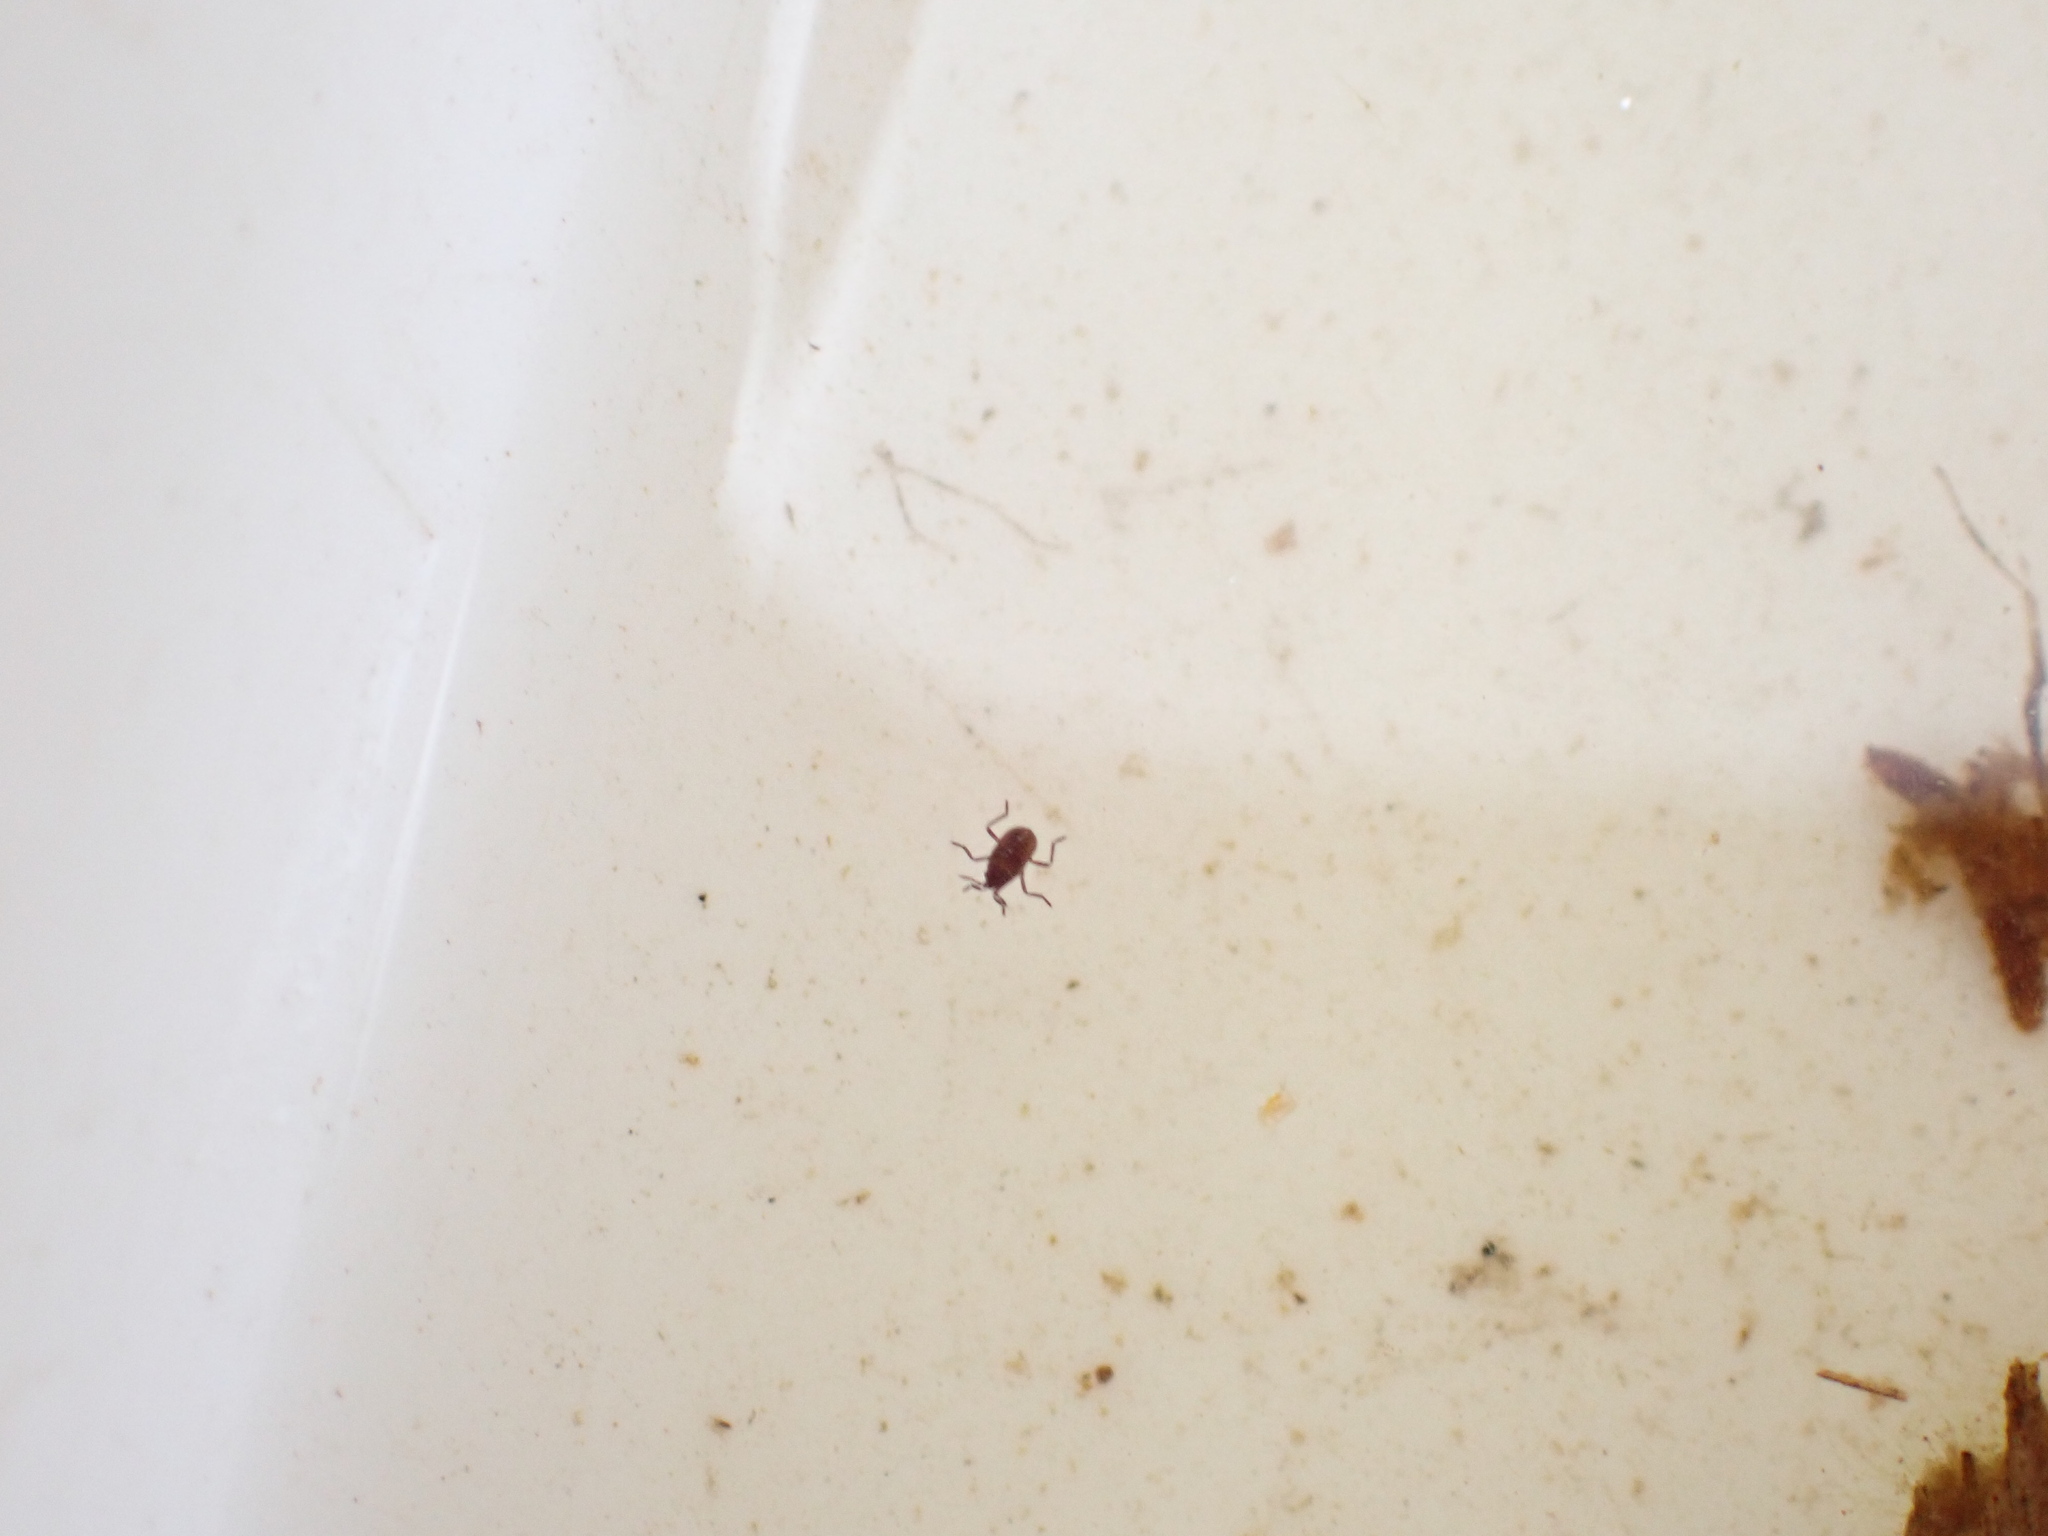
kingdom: Animalia
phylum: Arthropoda
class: Insecta
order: Hemiptera
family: Veliidae
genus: Microvelia
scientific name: Microvelia macgregori
